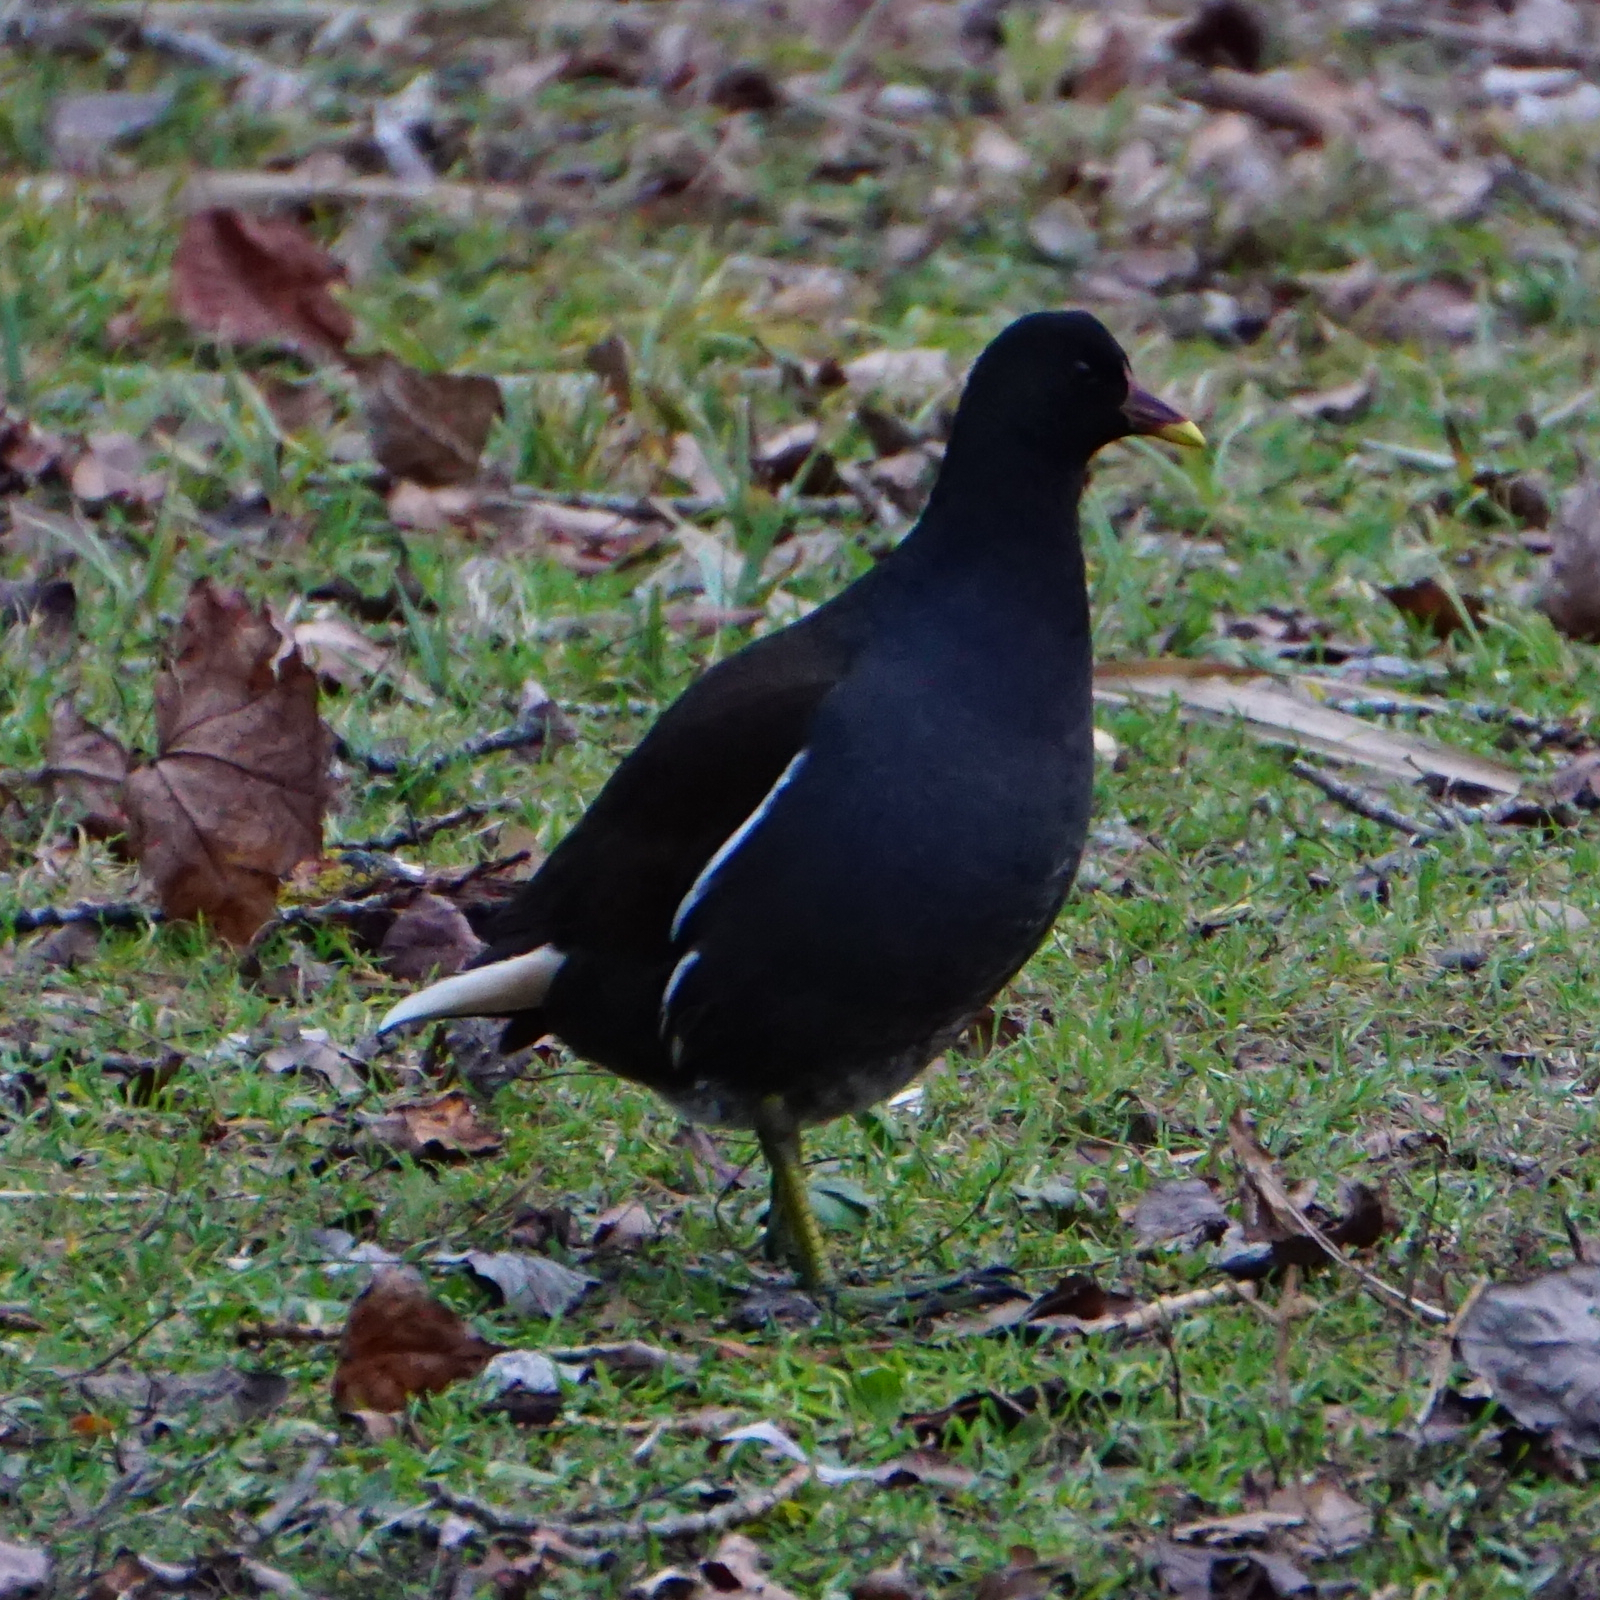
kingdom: Animalia
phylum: Chordata
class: Aves
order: Gruiformes
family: Rallidae
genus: Gallinula
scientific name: Gallinula chloropus
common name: Common moorhen
